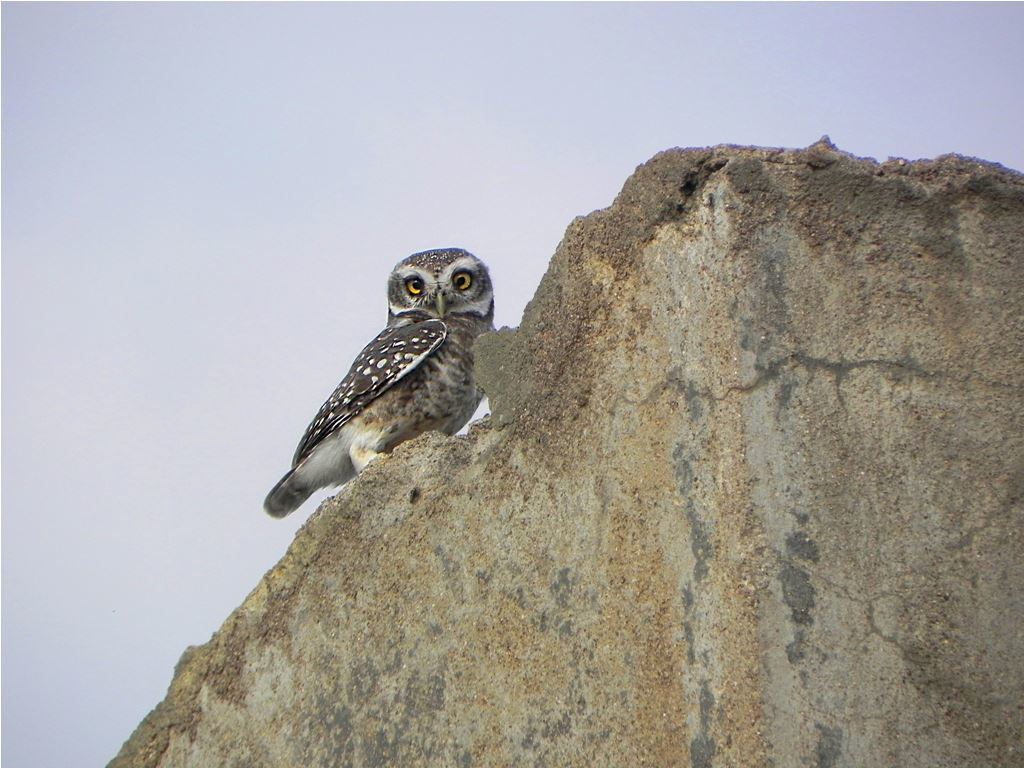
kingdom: Animalia
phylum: Chordata
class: Aves
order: Strigiformes
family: Strigidae
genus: Athene
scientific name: Athene brama
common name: Spotted owlet
